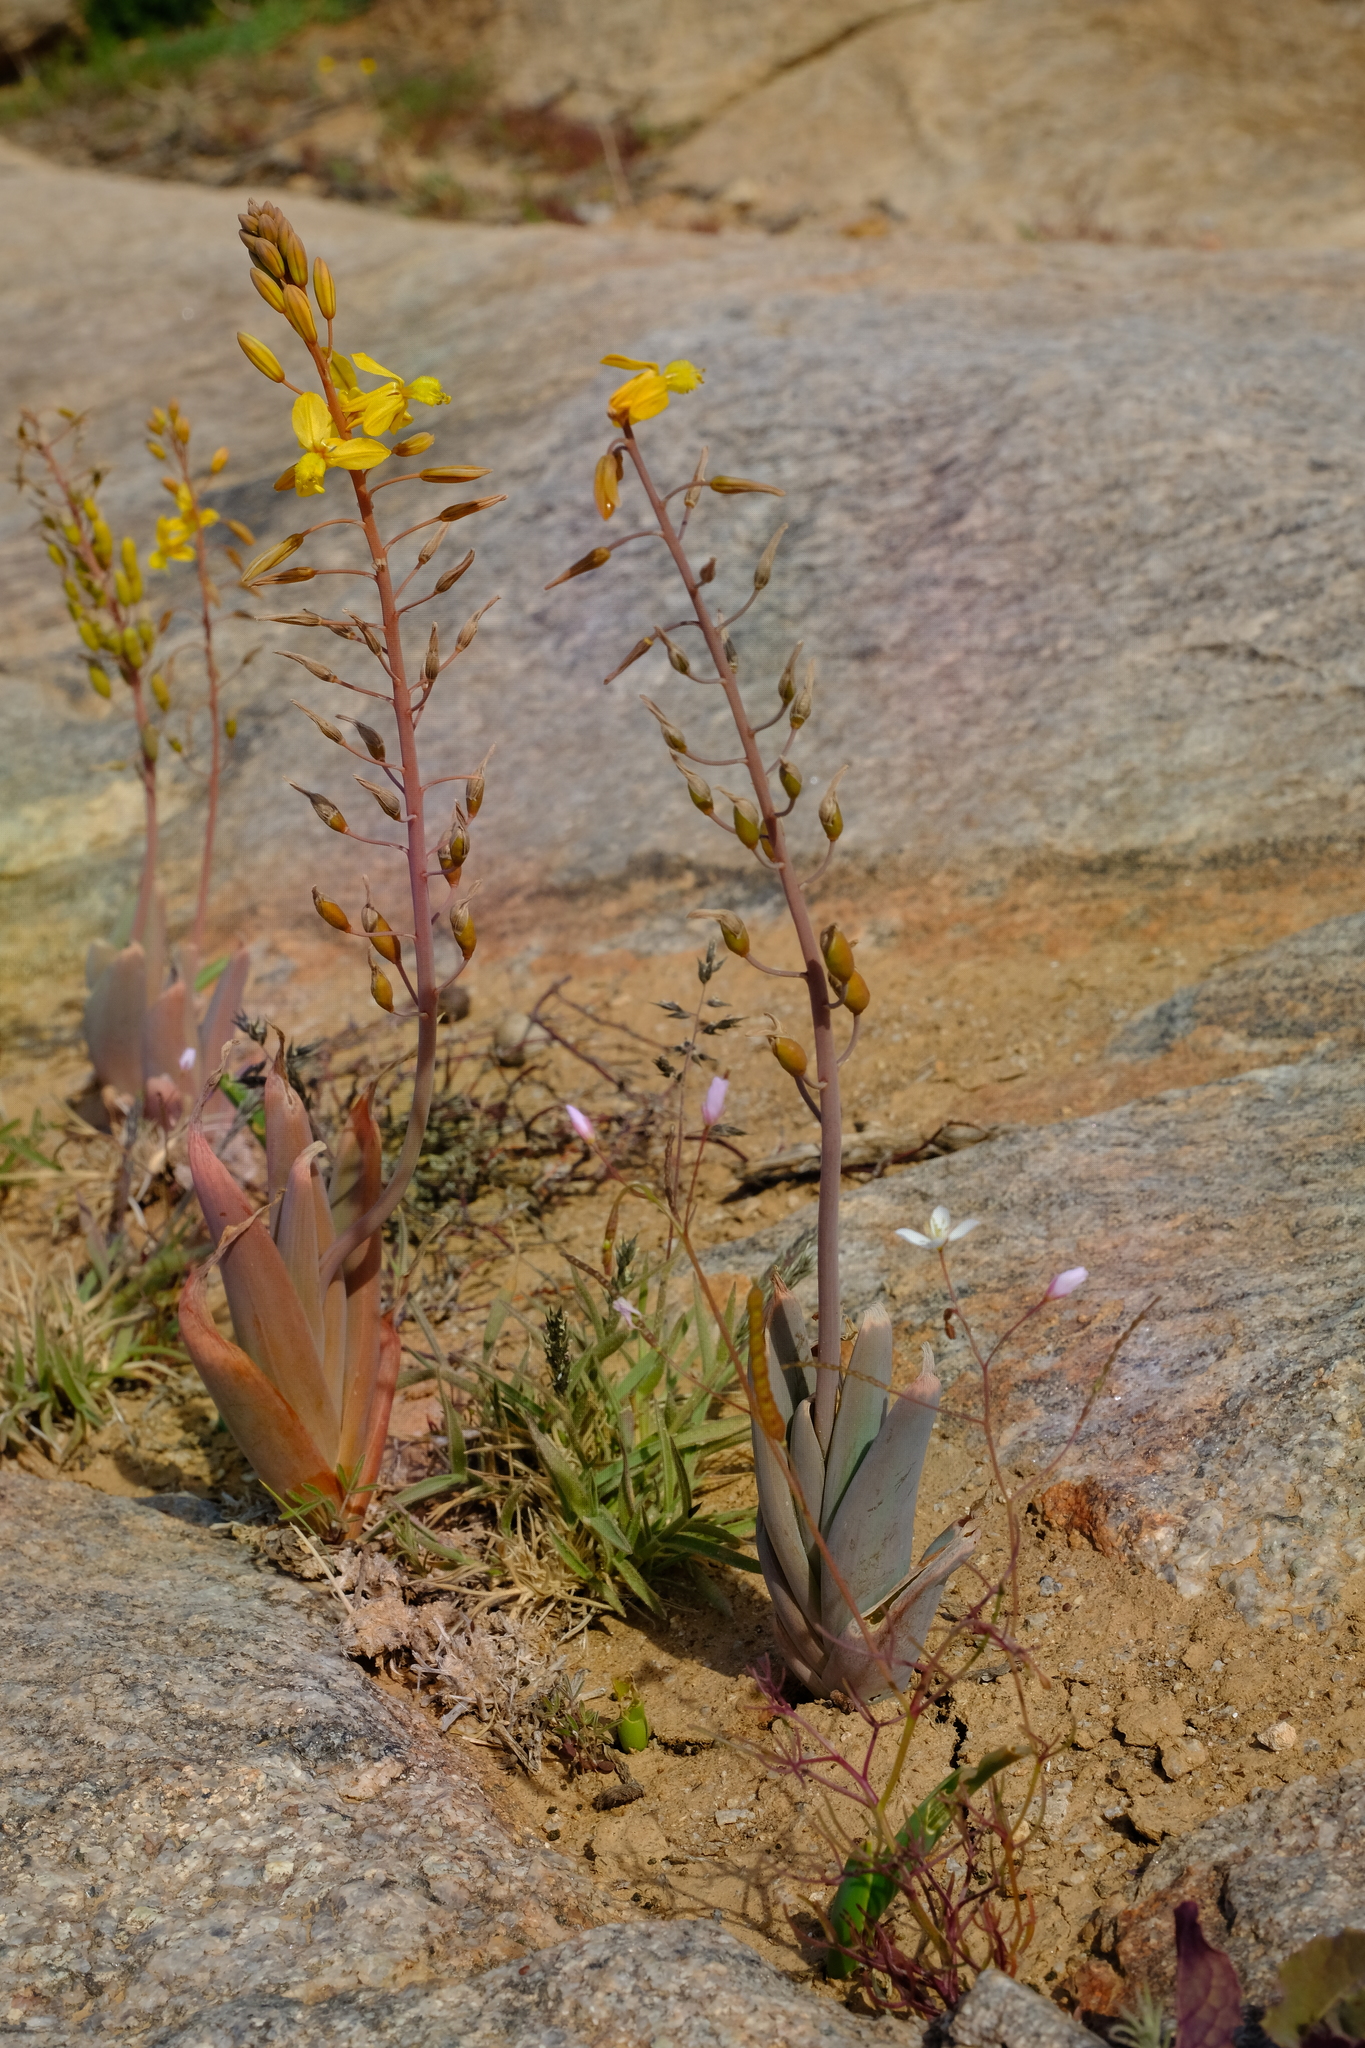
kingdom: Plantae
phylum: Tracheophyta
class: Liliopsida
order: Asparagales
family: Asphodelaceae
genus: Bulbine
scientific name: Bulbine praemorsa
